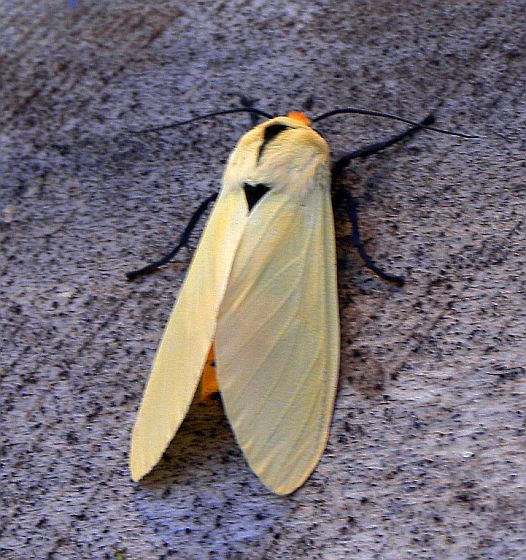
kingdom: Animalia
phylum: Arthropoda
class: Insecta
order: Lepidoptera
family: Erebidae
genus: Selenarctia
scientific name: Selenarctia pseudelissa
